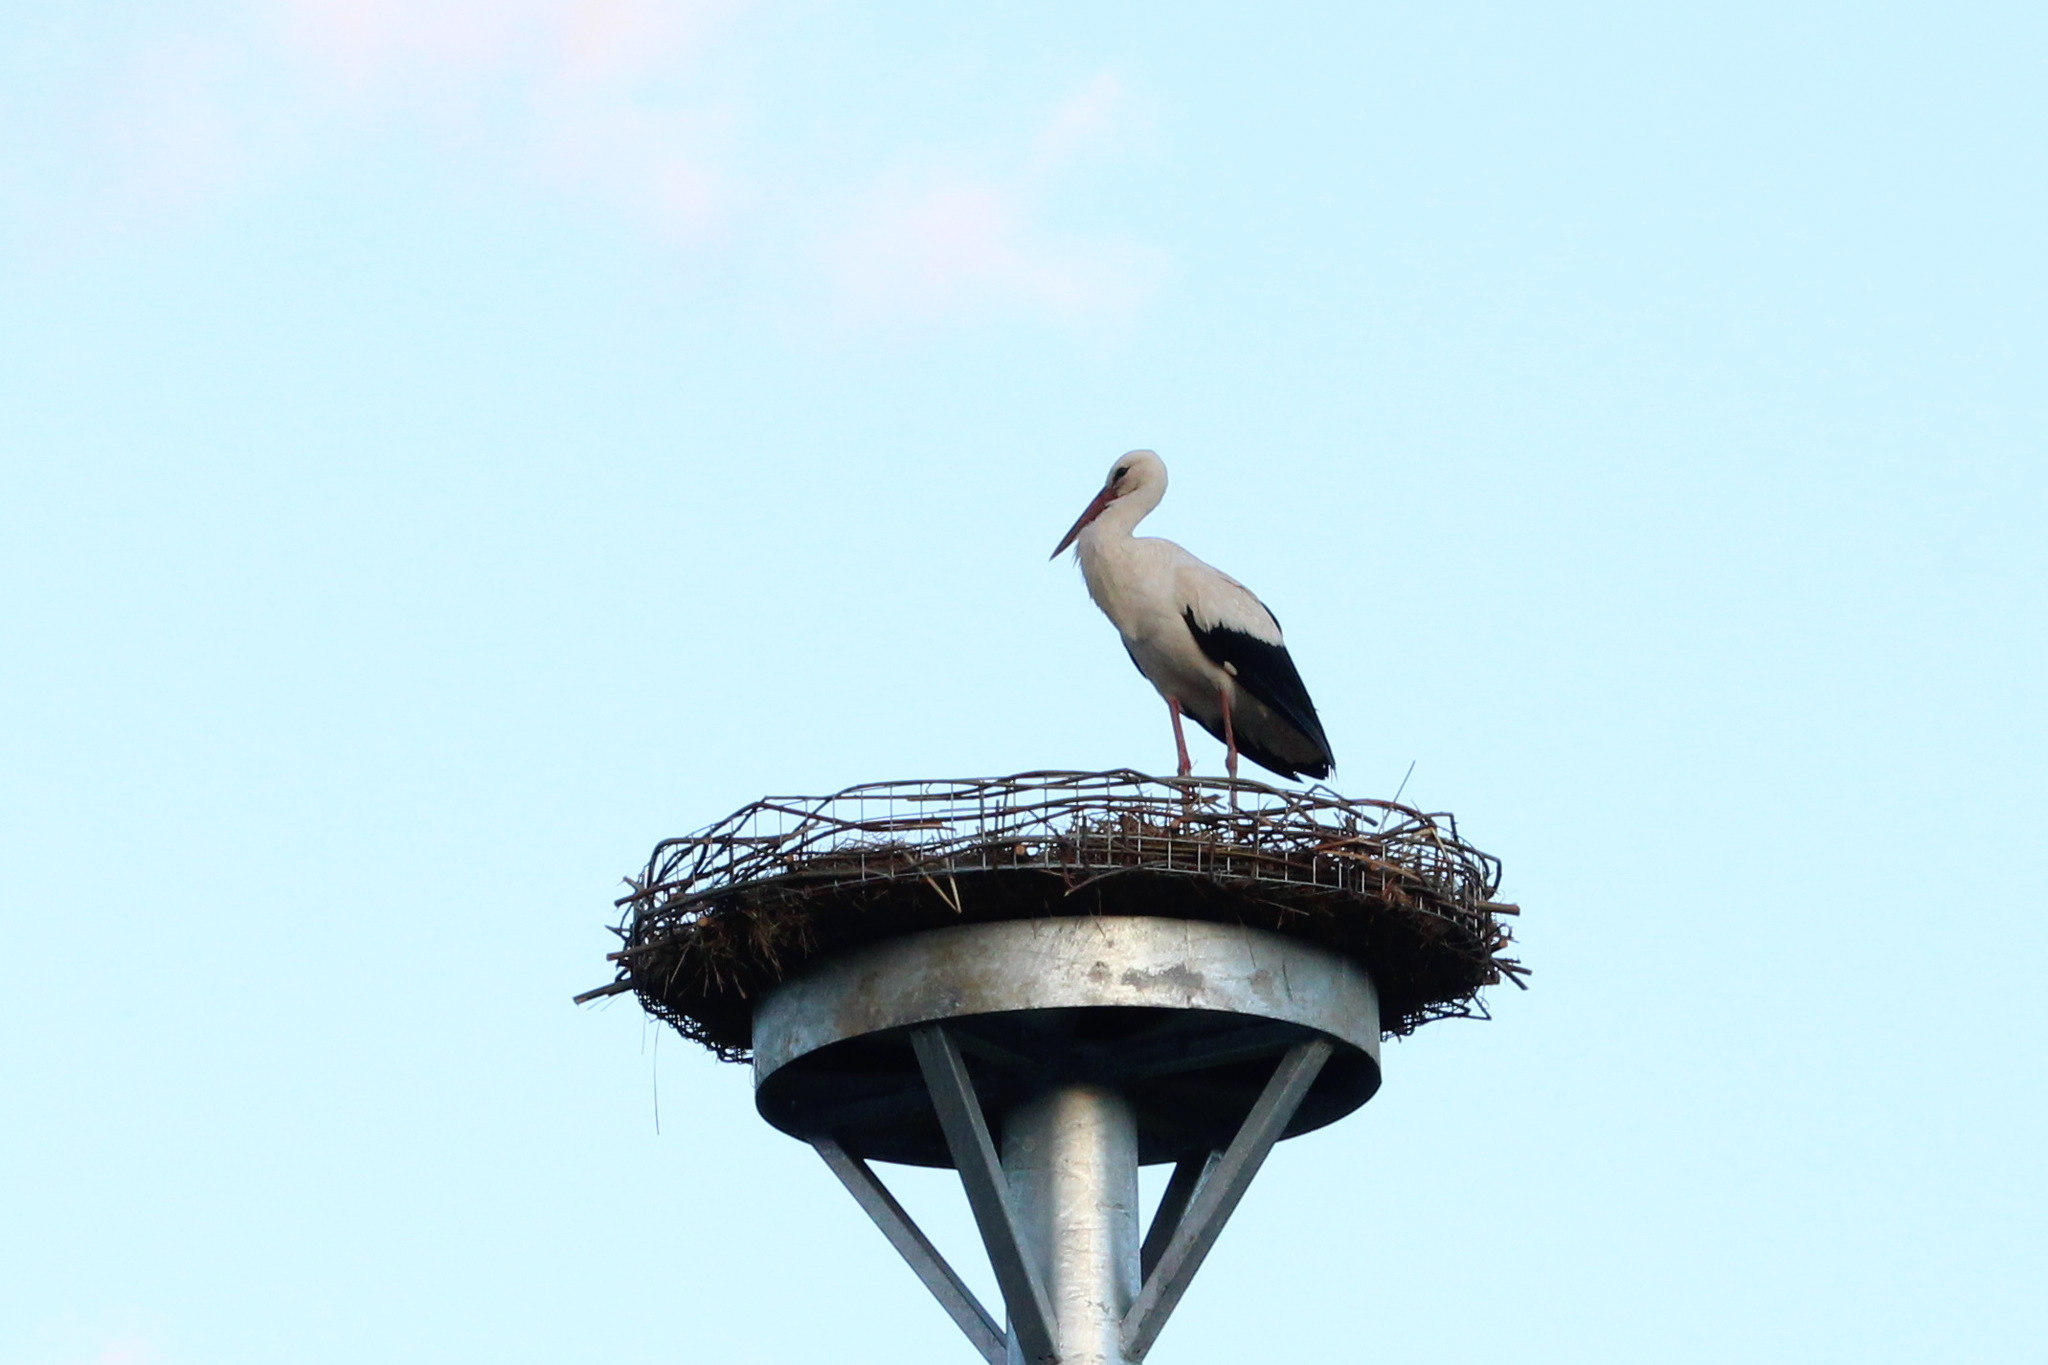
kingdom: Animalia
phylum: Chordata
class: Aves
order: Ciconiiformes
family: Ciconiidae
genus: Ciconia
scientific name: Ciconia ciconia
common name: White stork
